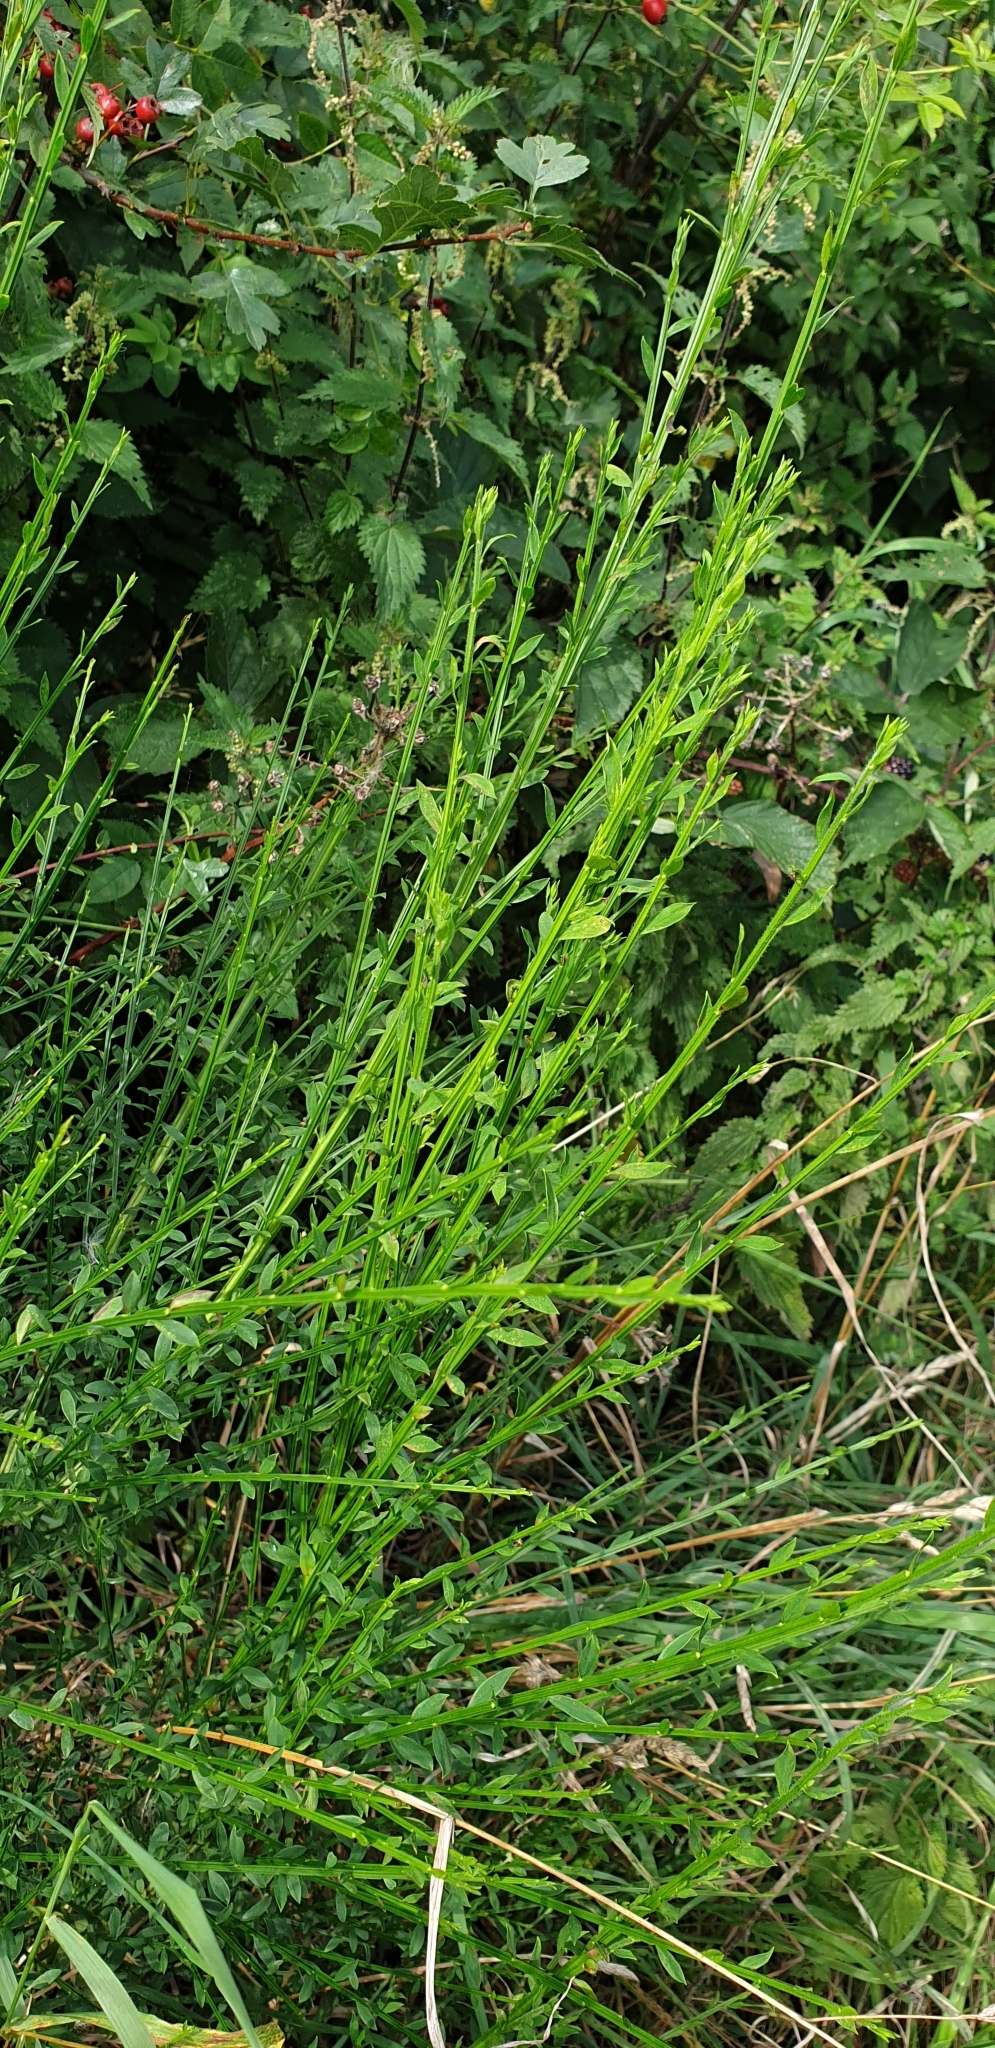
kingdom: Plantae
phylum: Tracheophyta
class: Magnoliopsida
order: Fabales
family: Fabaceae
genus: Cytisus
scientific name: Cytisus scoparius
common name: Scotch broom
